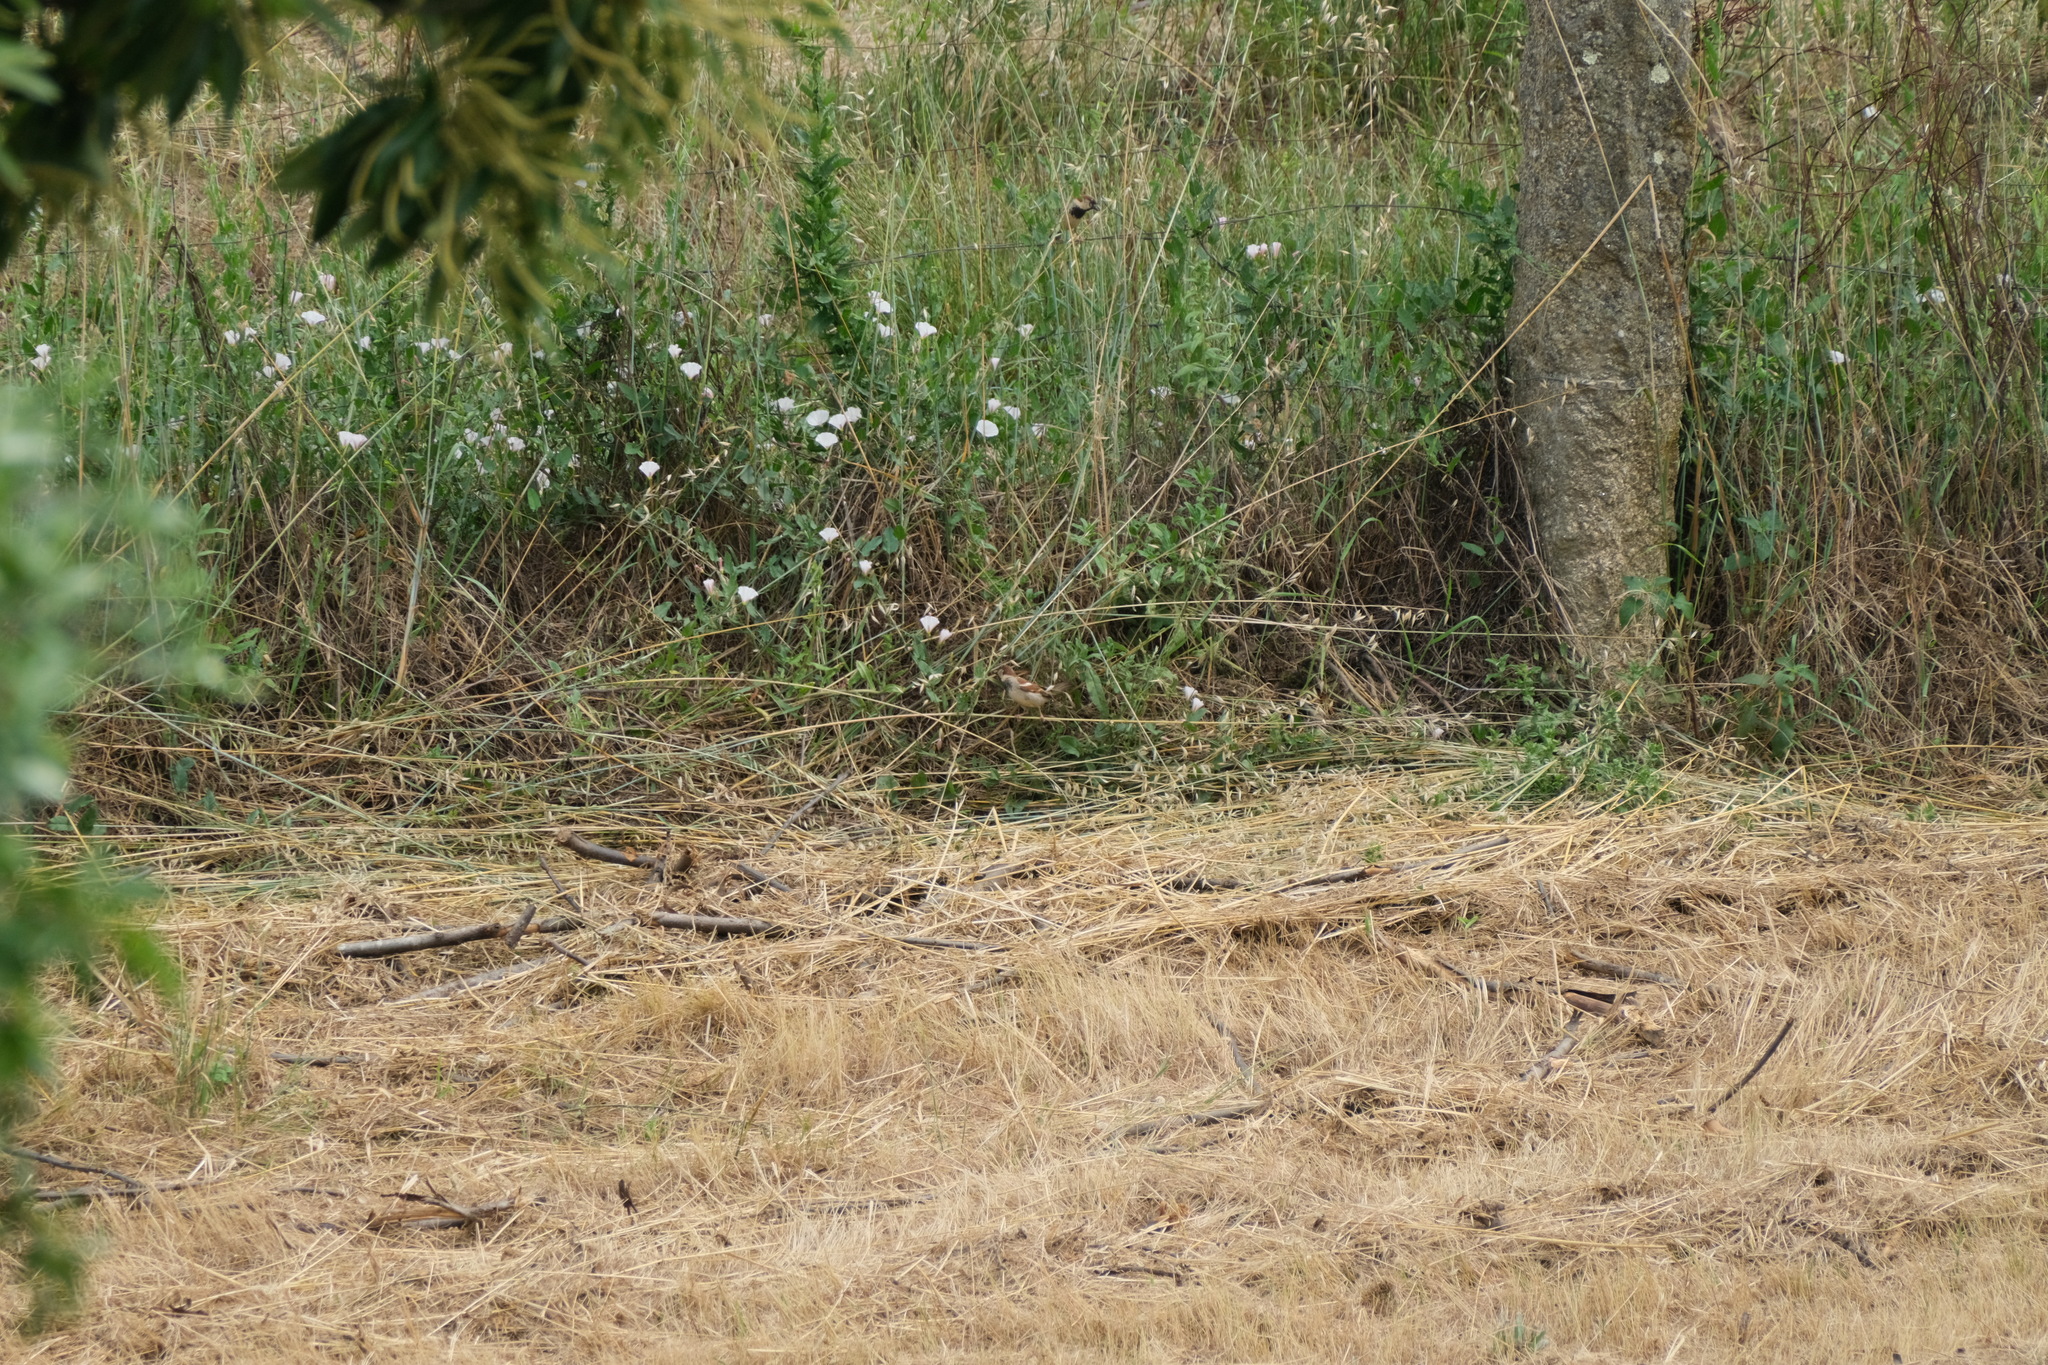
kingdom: Animalia
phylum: Chordata
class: Aves
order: Passeriformes
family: Passeridae
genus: Passer
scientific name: Passer domesticus
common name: House sparrow
